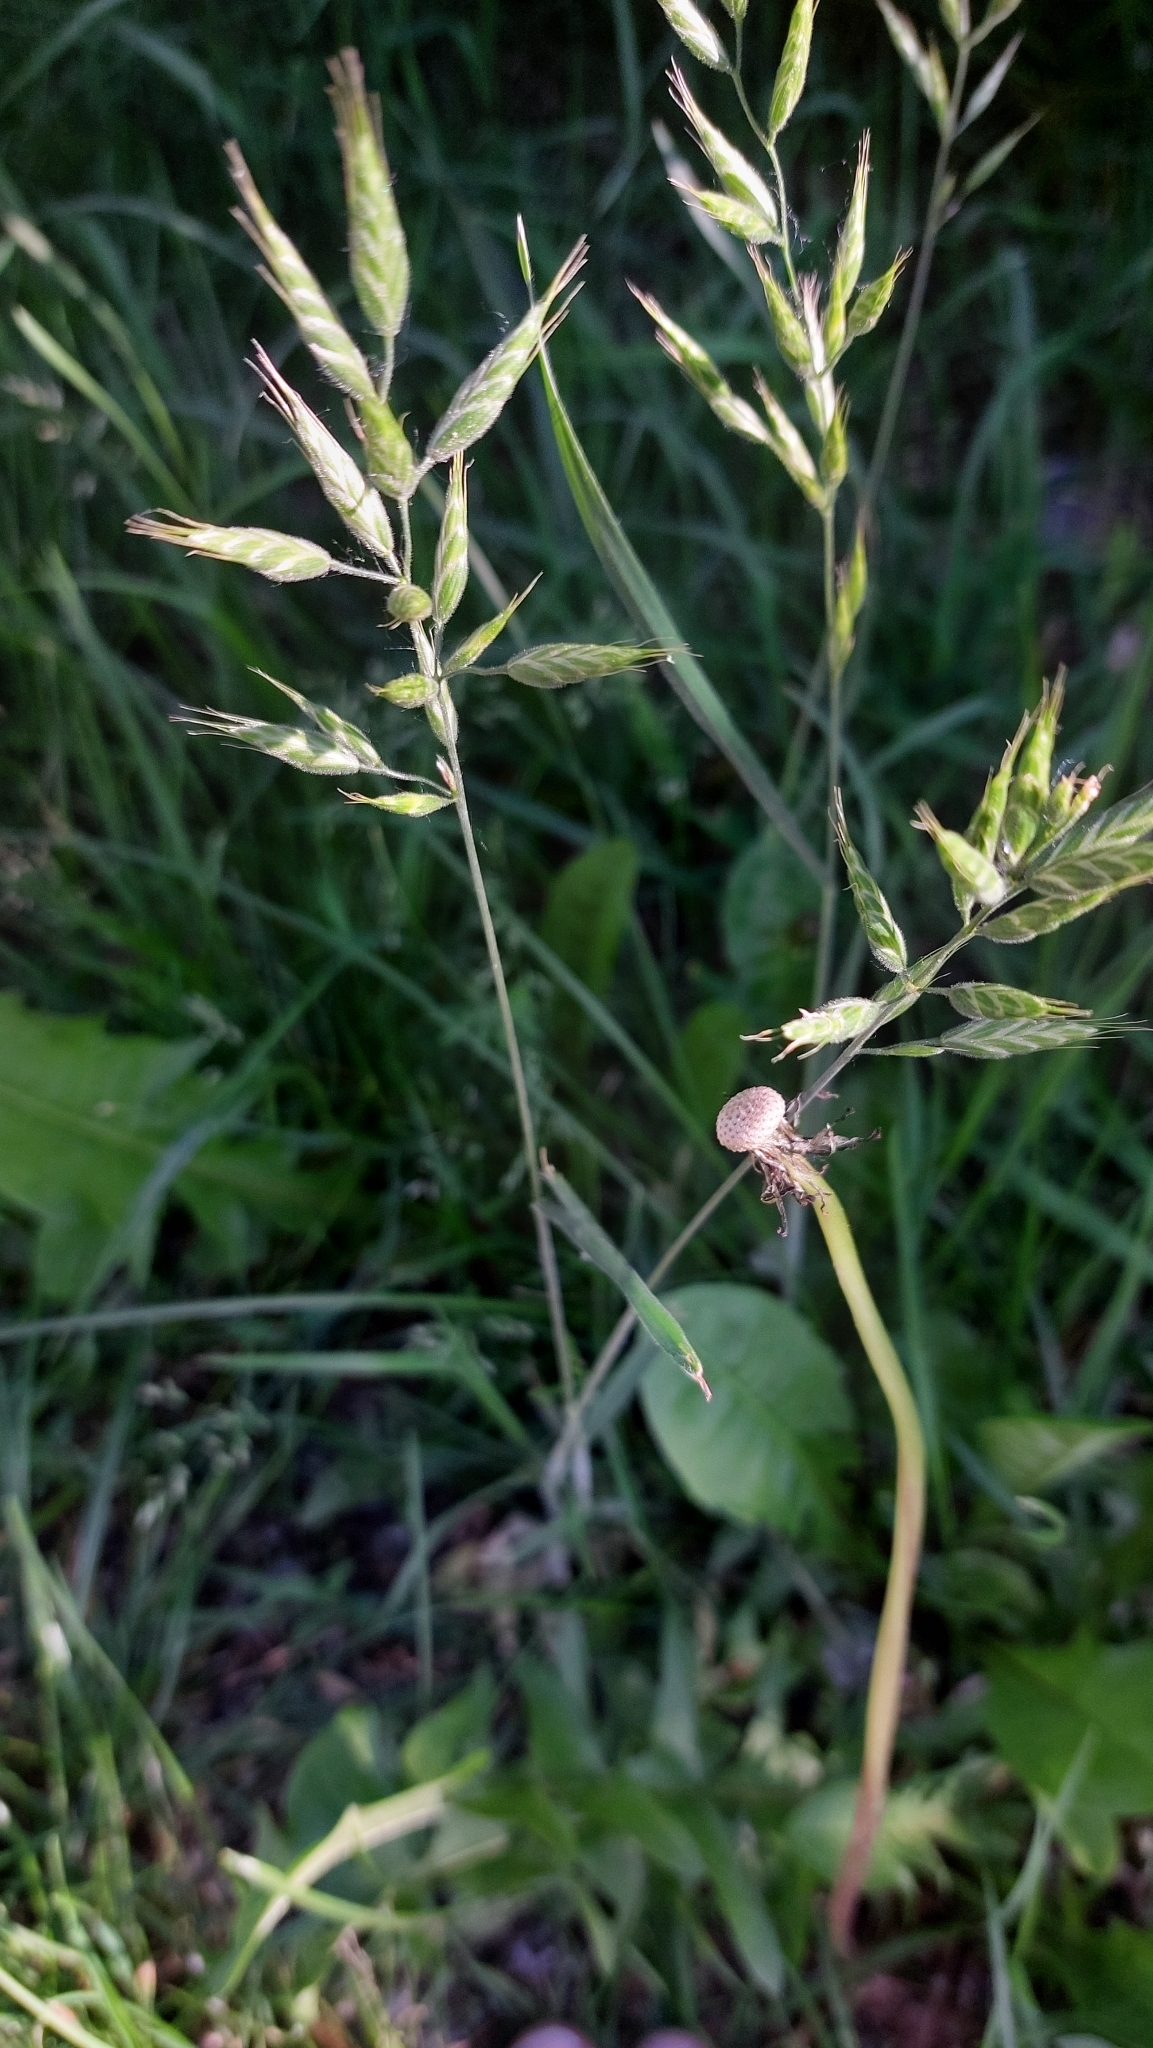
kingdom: Plantae
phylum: Tracheophyta
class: Liliopsida
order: Poales
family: Poaceae
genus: Bromus
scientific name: Bromus hordeaceus
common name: Soft brome
